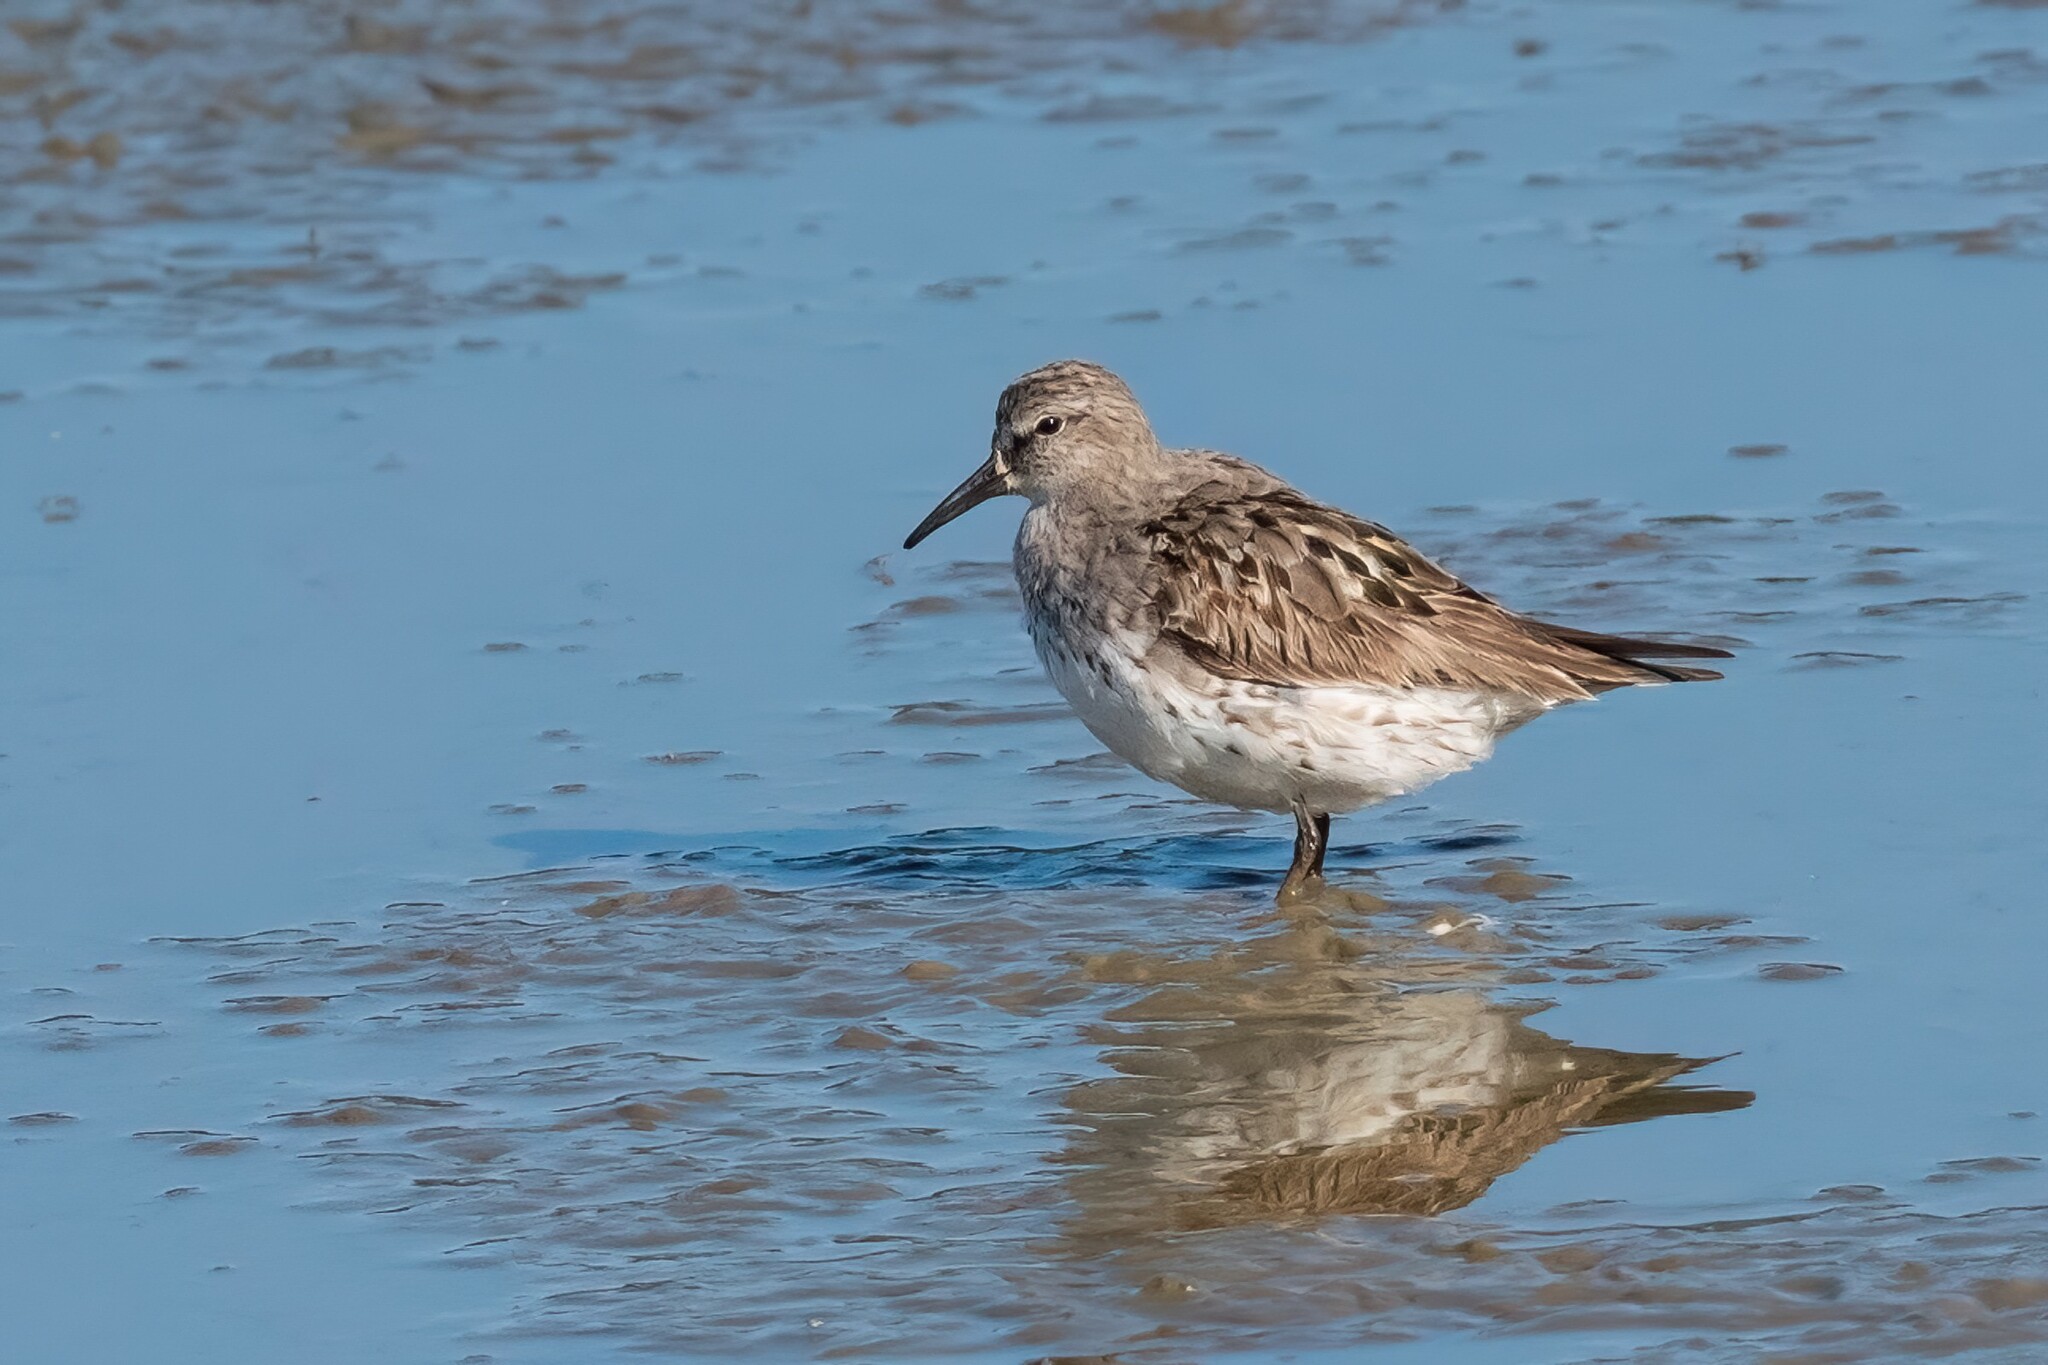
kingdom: Animalia
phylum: Chordata
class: Aves
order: Charadriiformes
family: Scolopacidae
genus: Calidris
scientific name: Calidris fuscicollis
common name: White-rumped sandpiper
